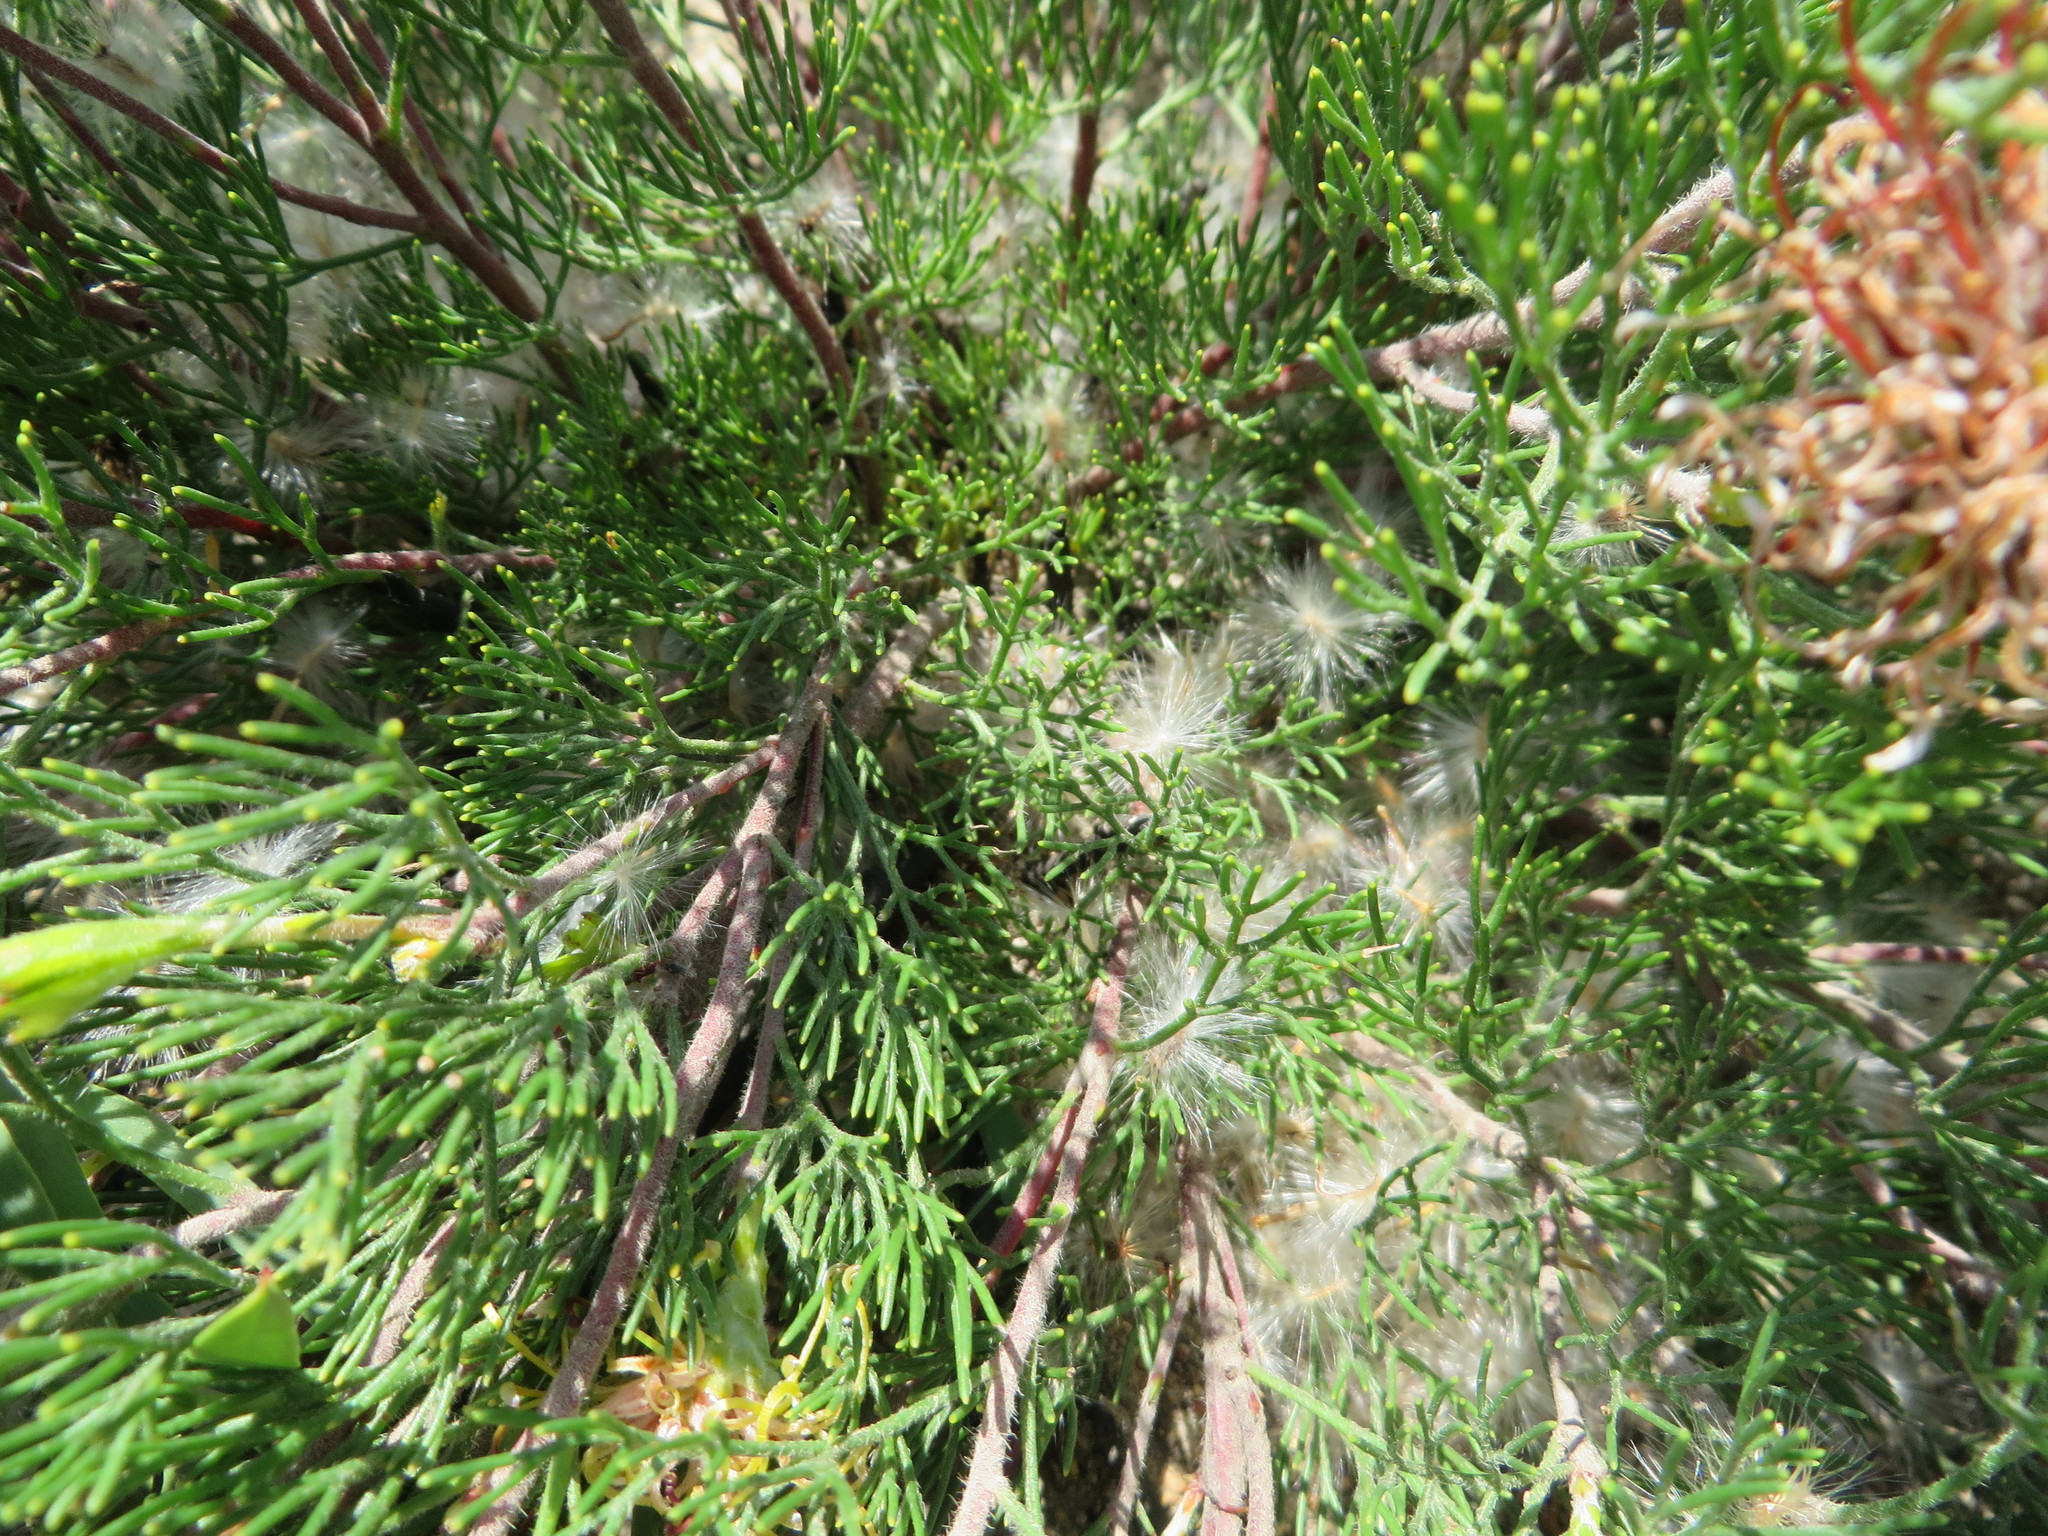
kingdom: Plantae
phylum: Tracheophyta
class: Magnoliopsida
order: Proteales
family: Proteaceae
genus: Serruria
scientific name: Serruria
